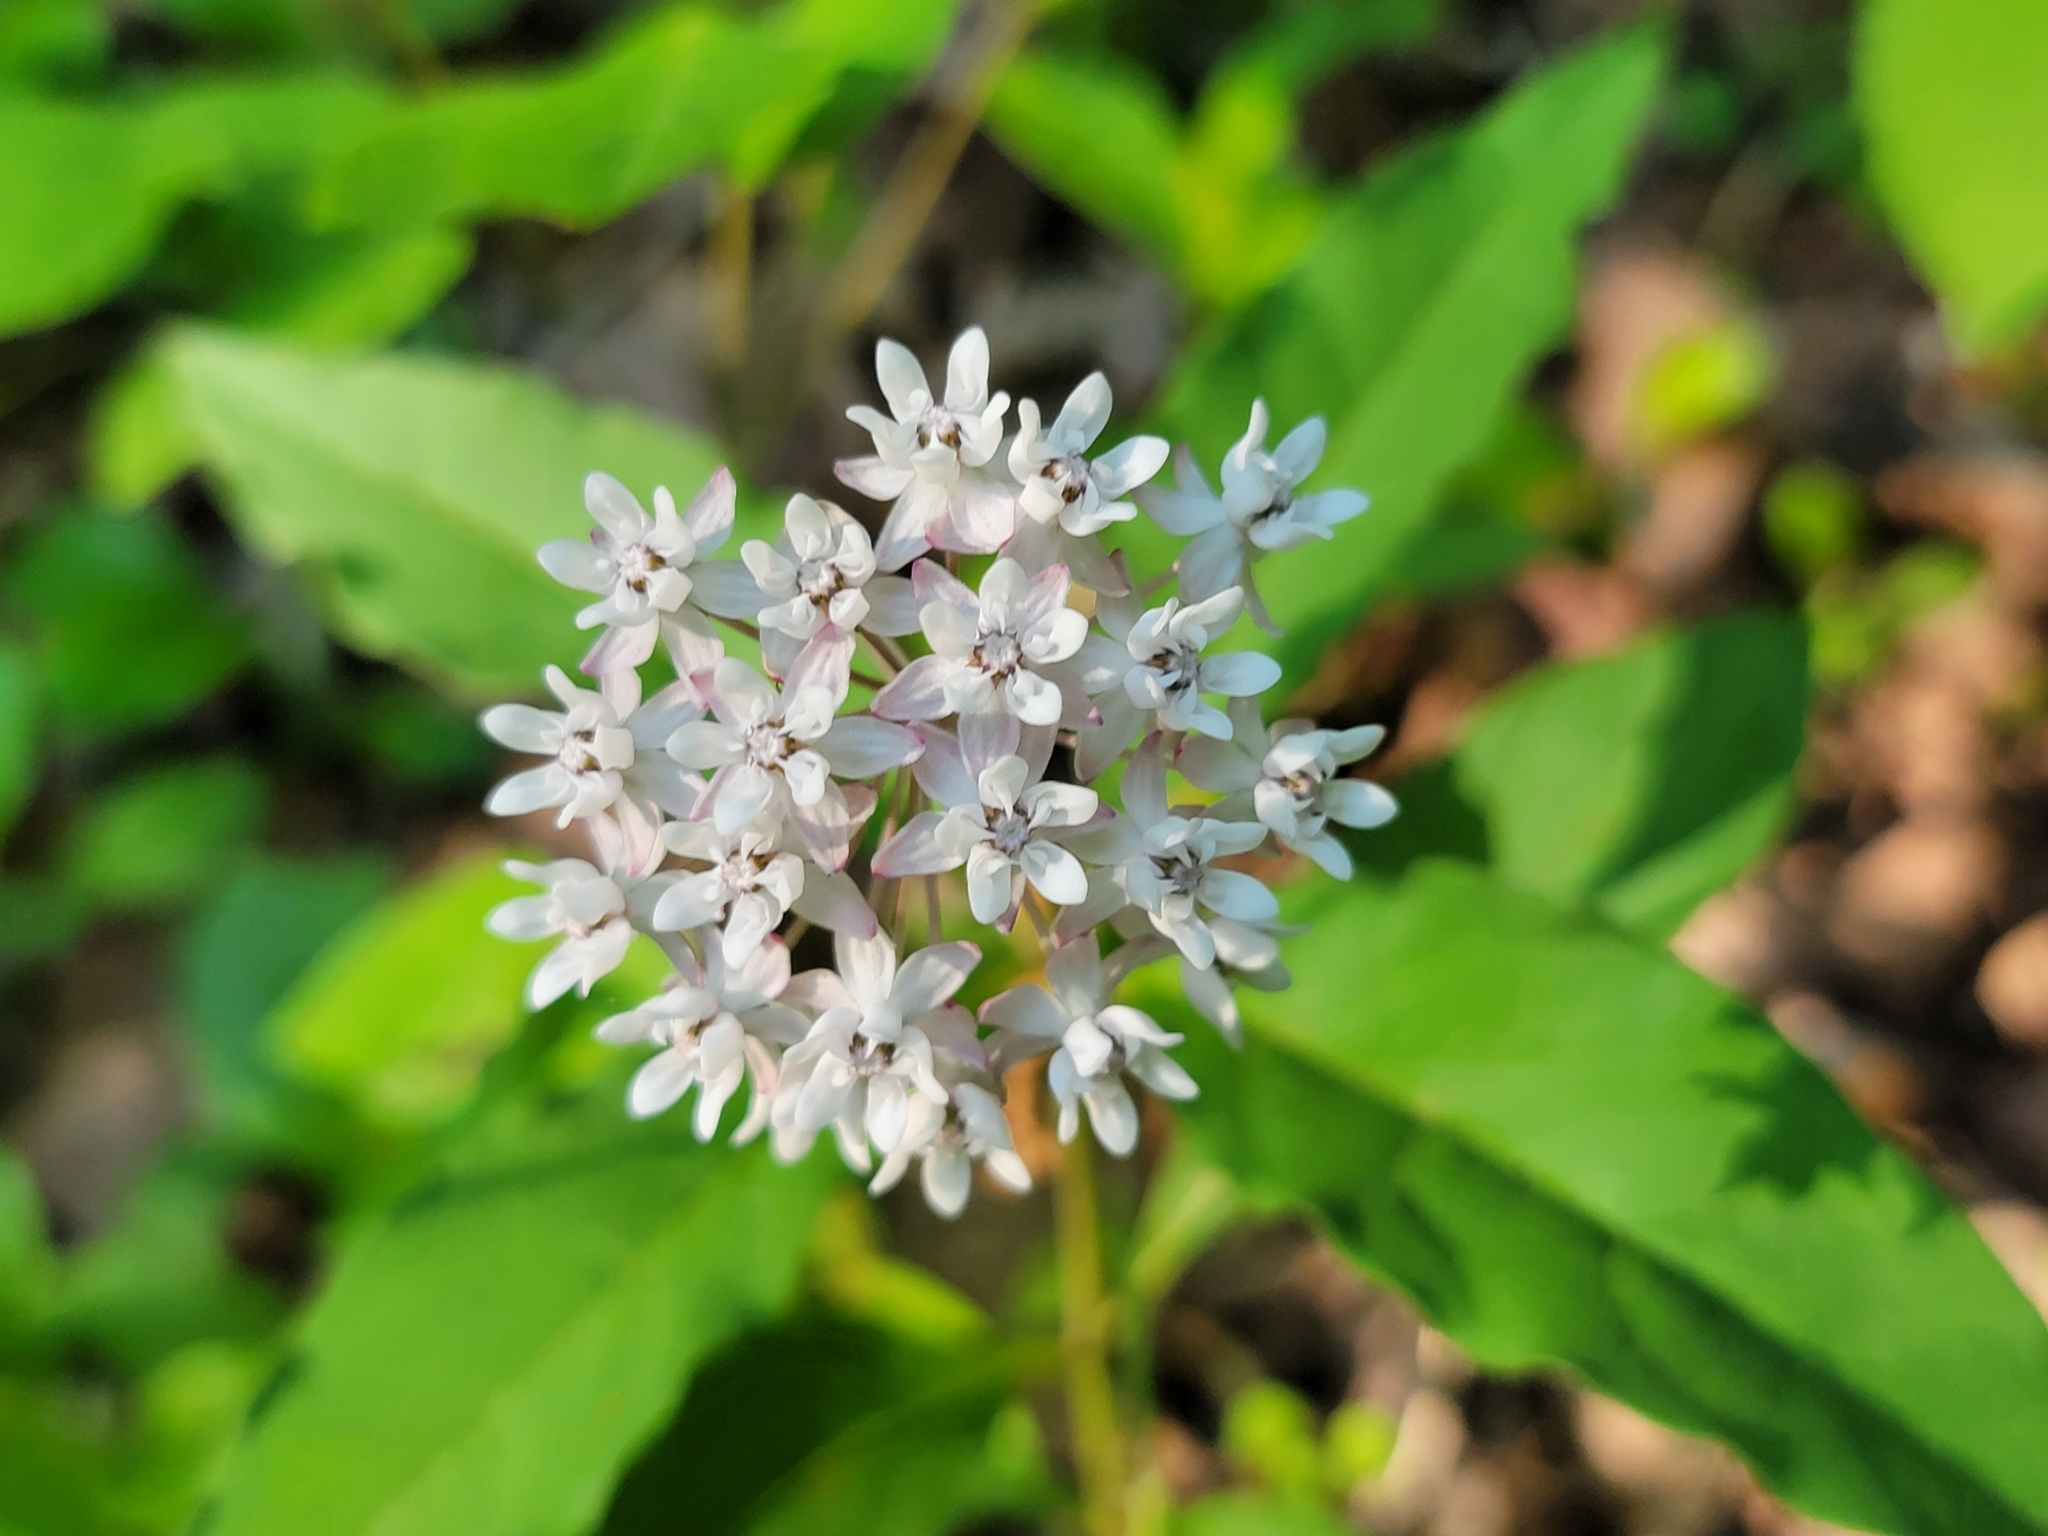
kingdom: Plantae
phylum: Tracheophyta
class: Magnoliopsida
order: Gentianales
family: Apocynaceae
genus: Asclepias
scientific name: Asclepias quadrifolia
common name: Whorled milkweed
